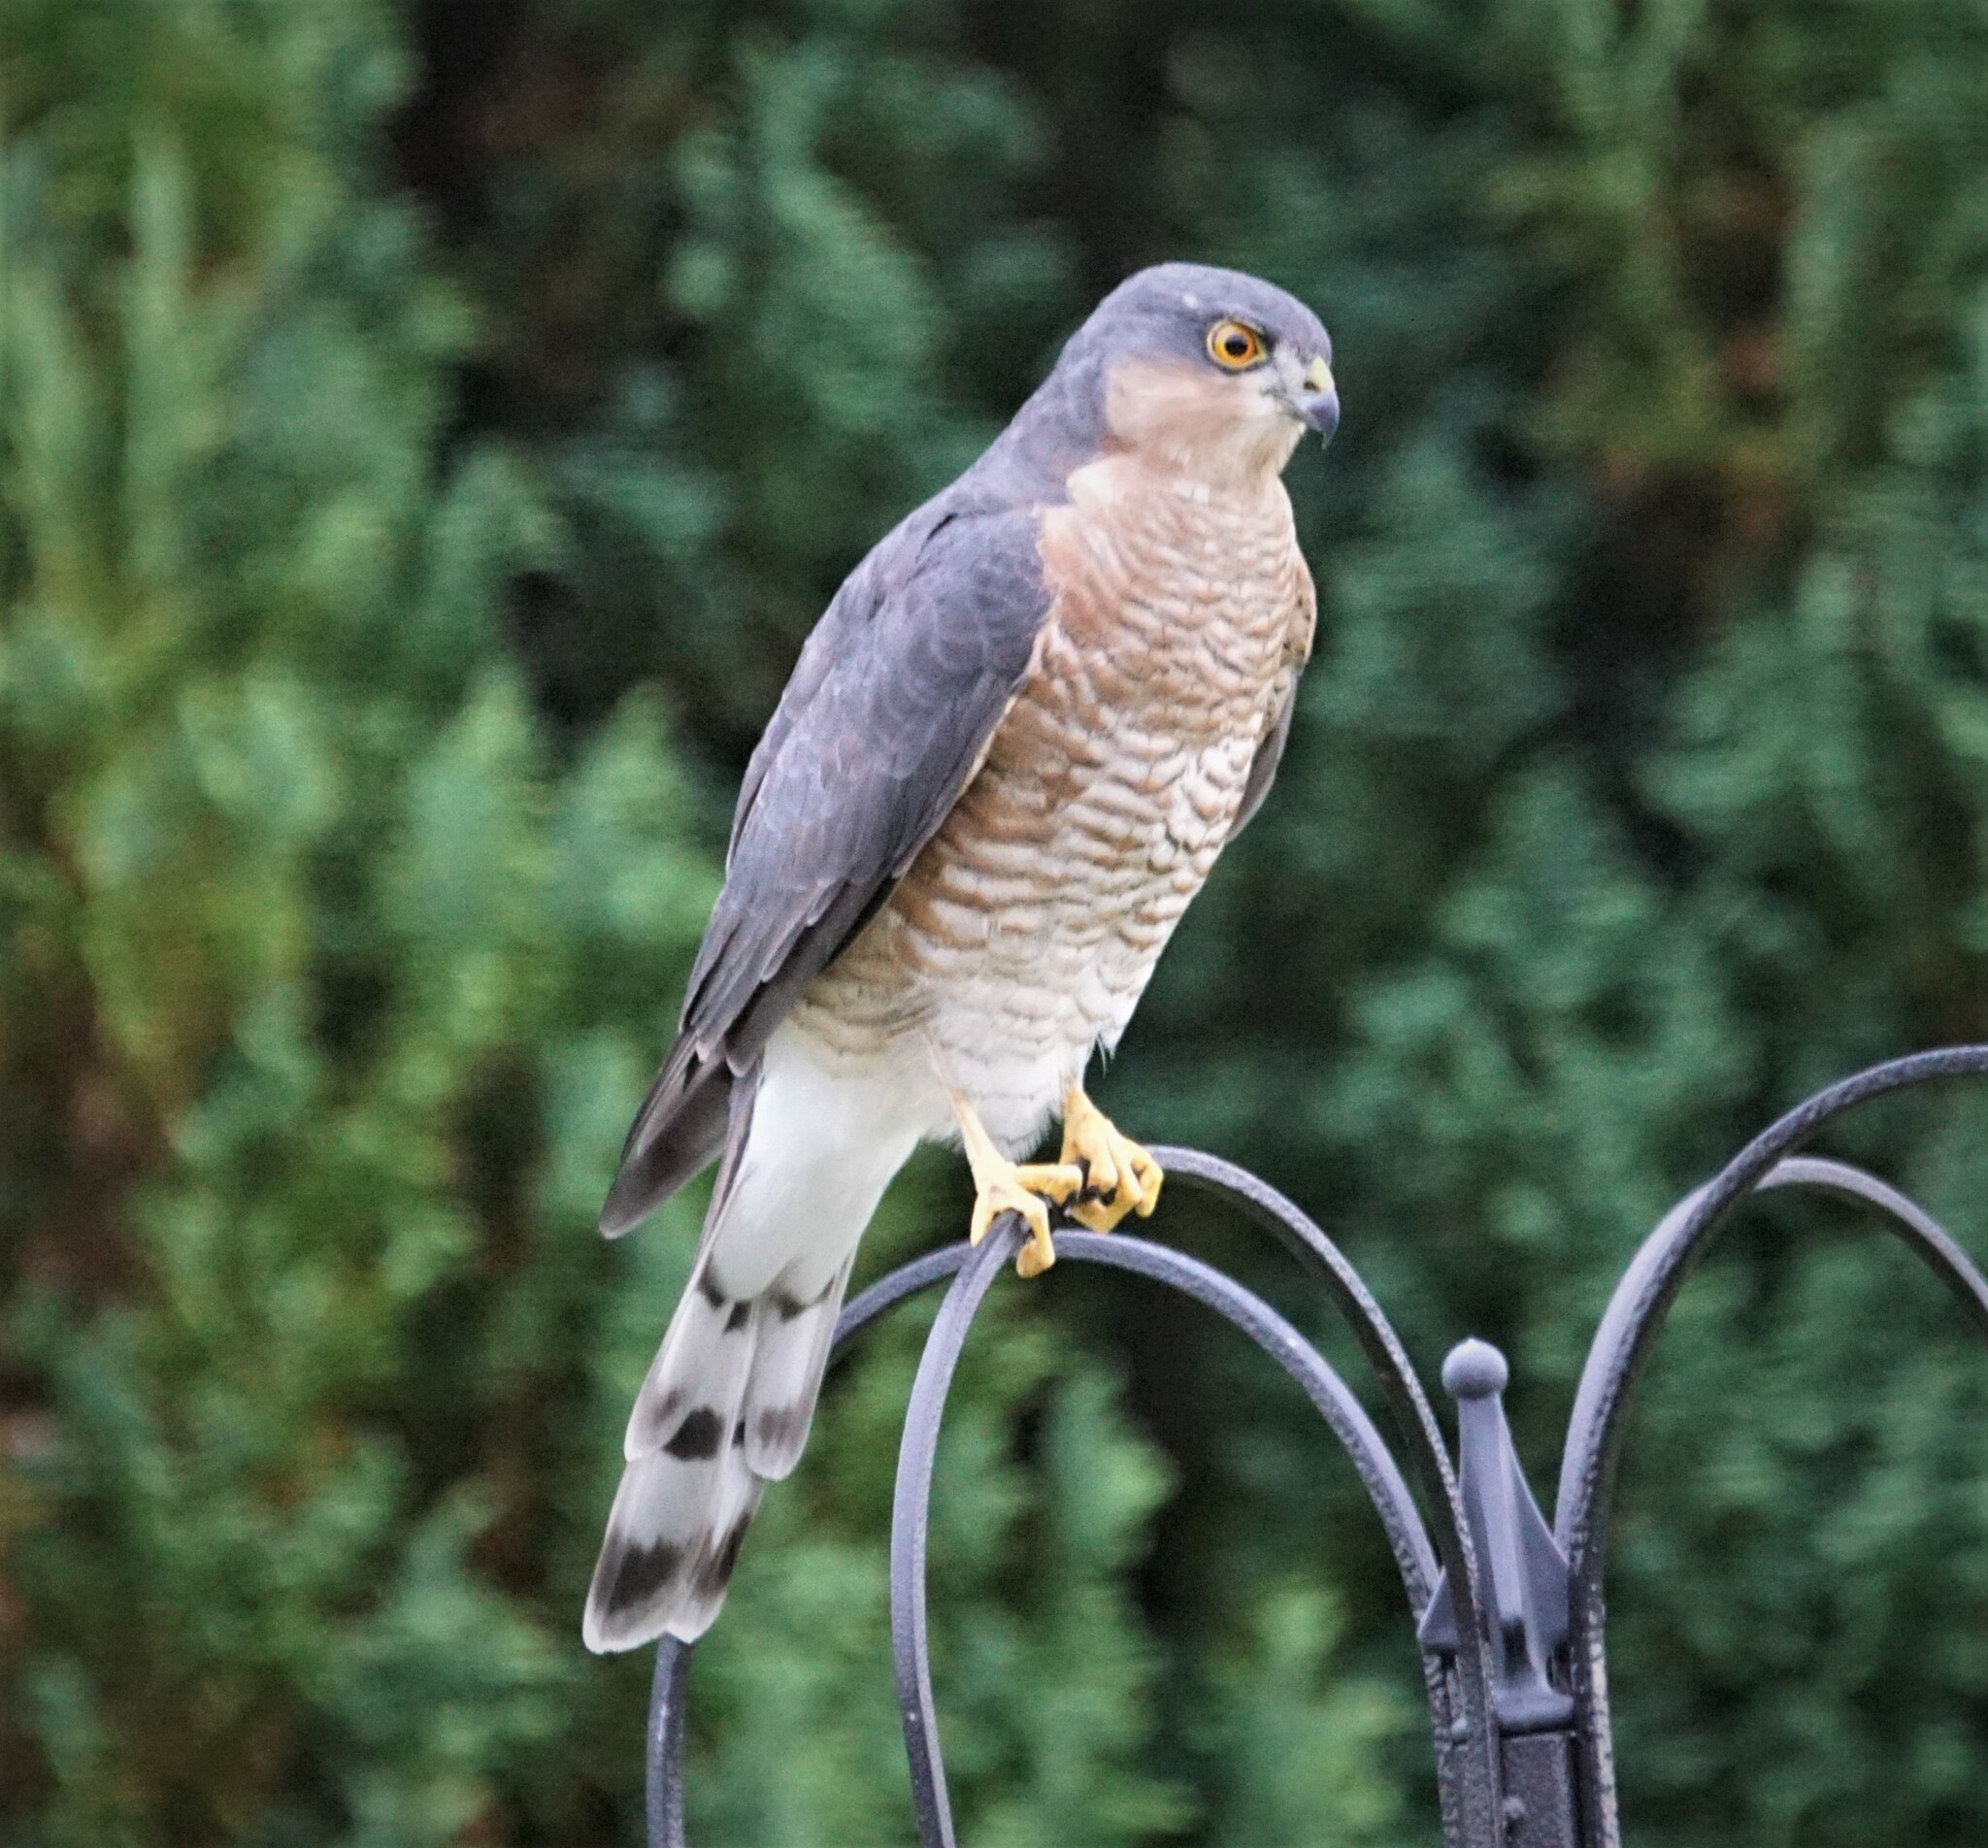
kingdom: Animalia
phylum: Chordata
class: Aves
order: Accipitriformes
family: Accipitridae
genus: Accipiter
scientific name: Accipiter nisus
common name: Eurasian sparrowhawk
